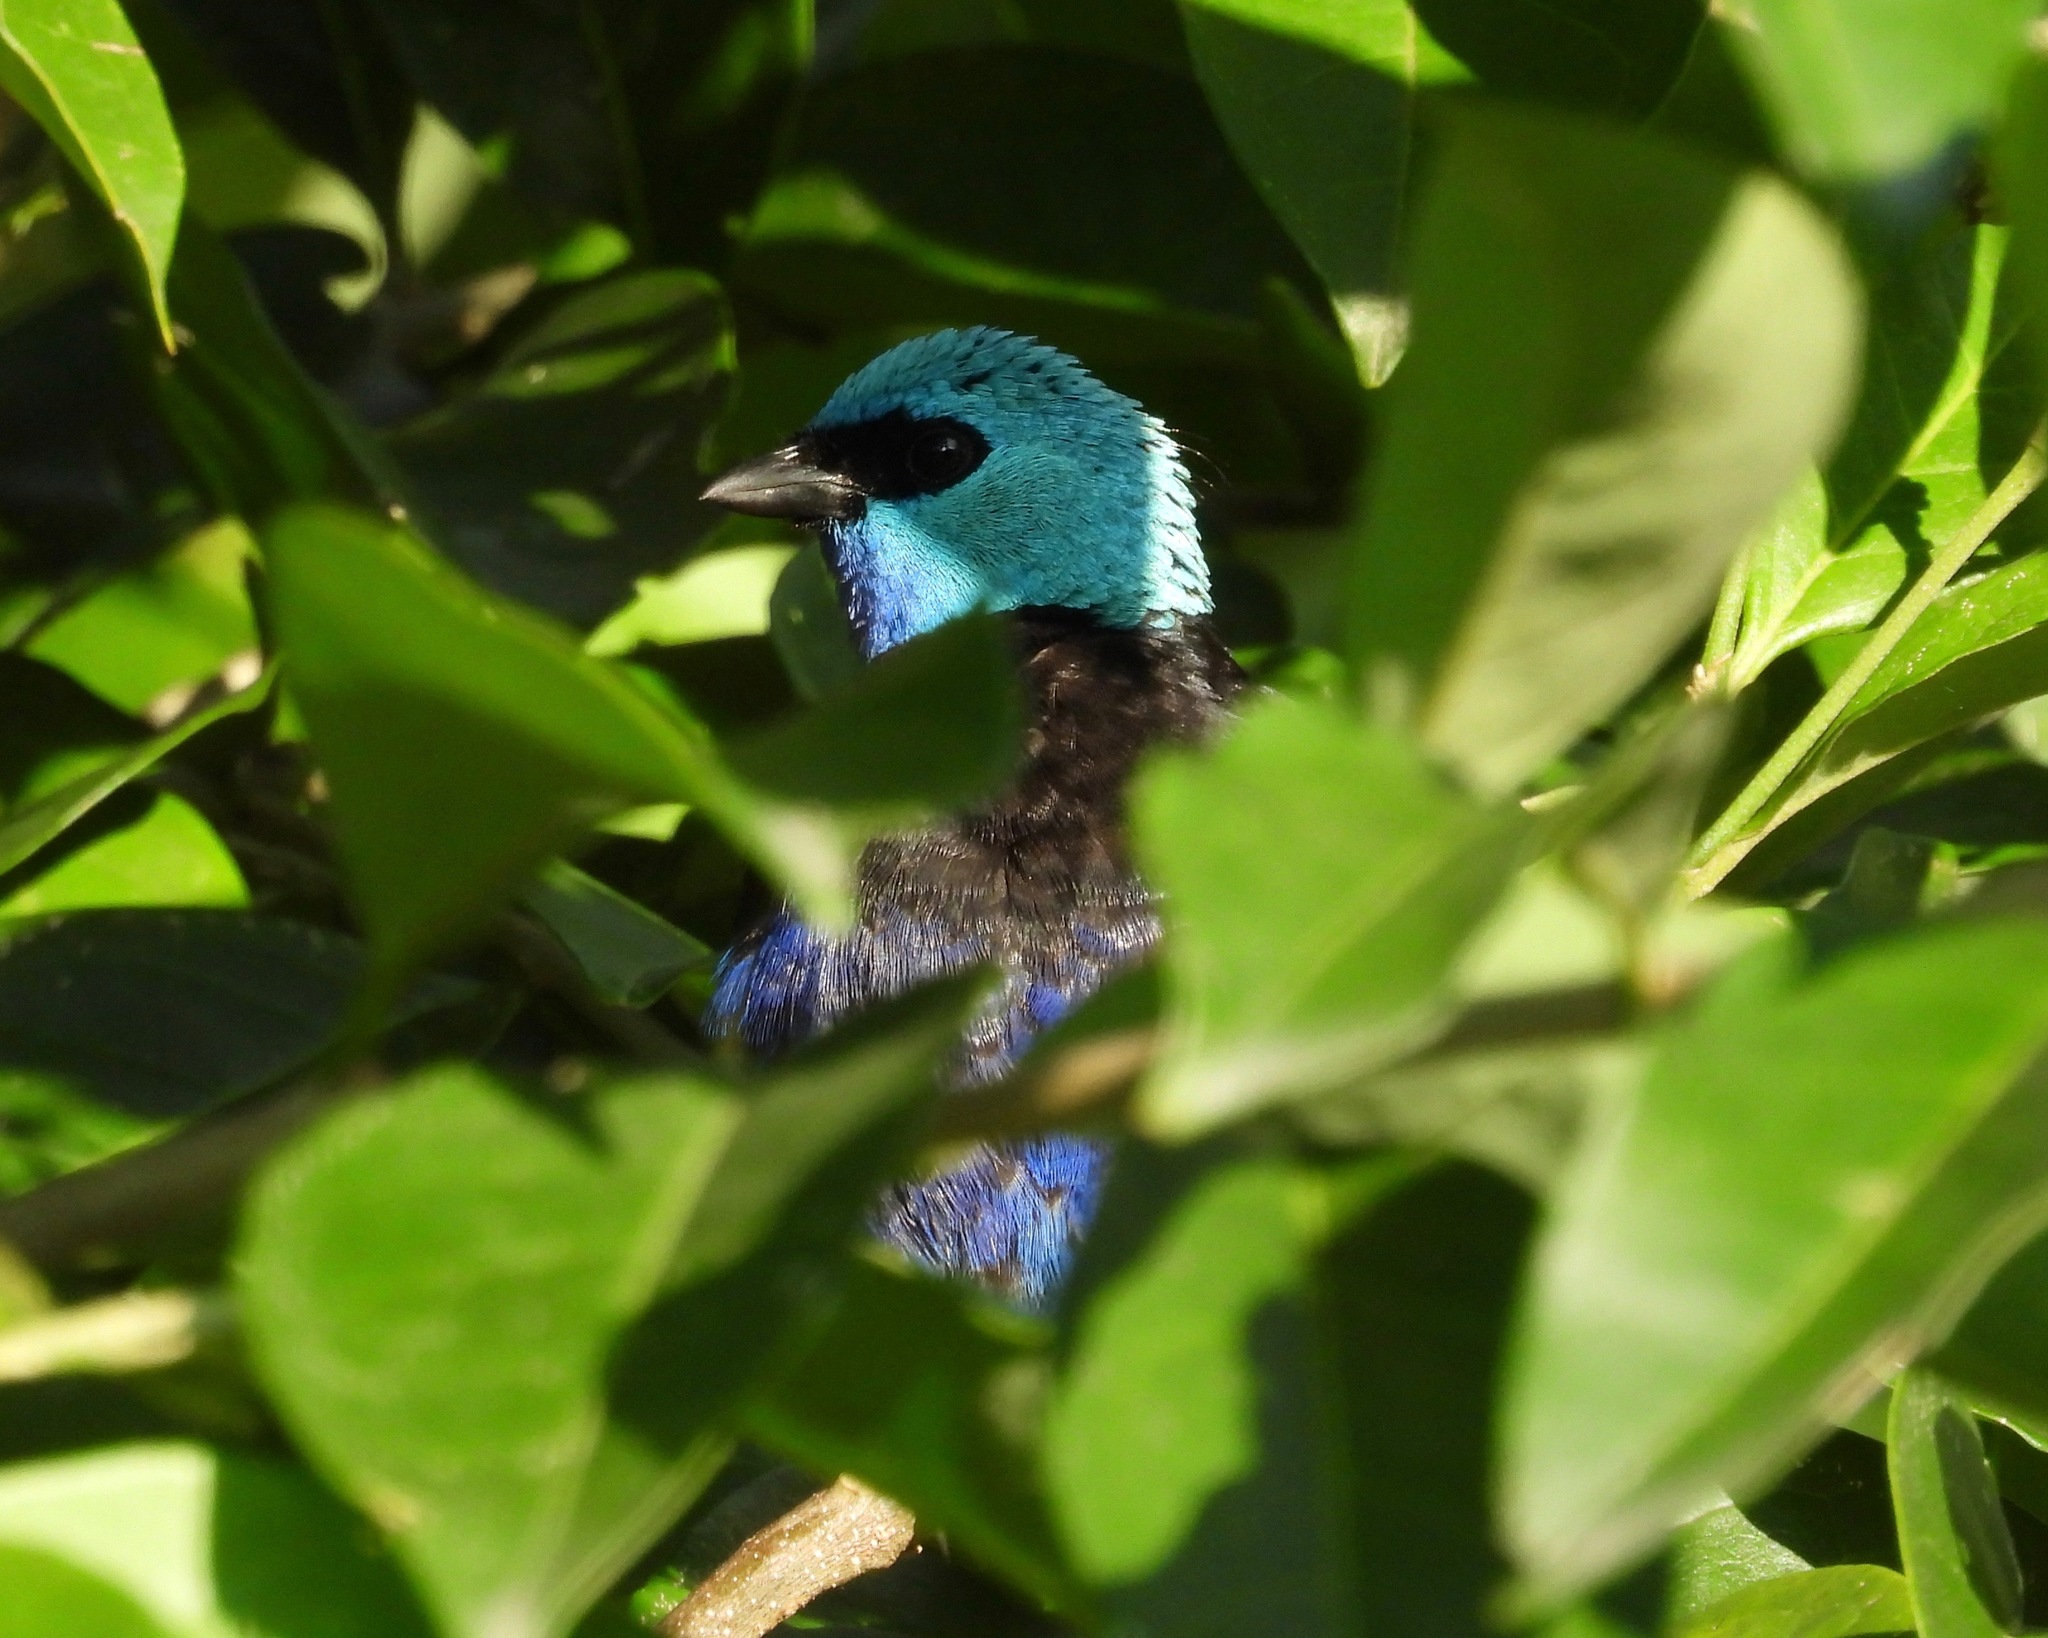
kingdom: Animalia
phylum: Chordata
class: Aves
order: Passeriformes
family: Thraupidae
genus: Stilpnia
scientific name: Stilpnia cyanicollis
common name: Blue-necked tanager
